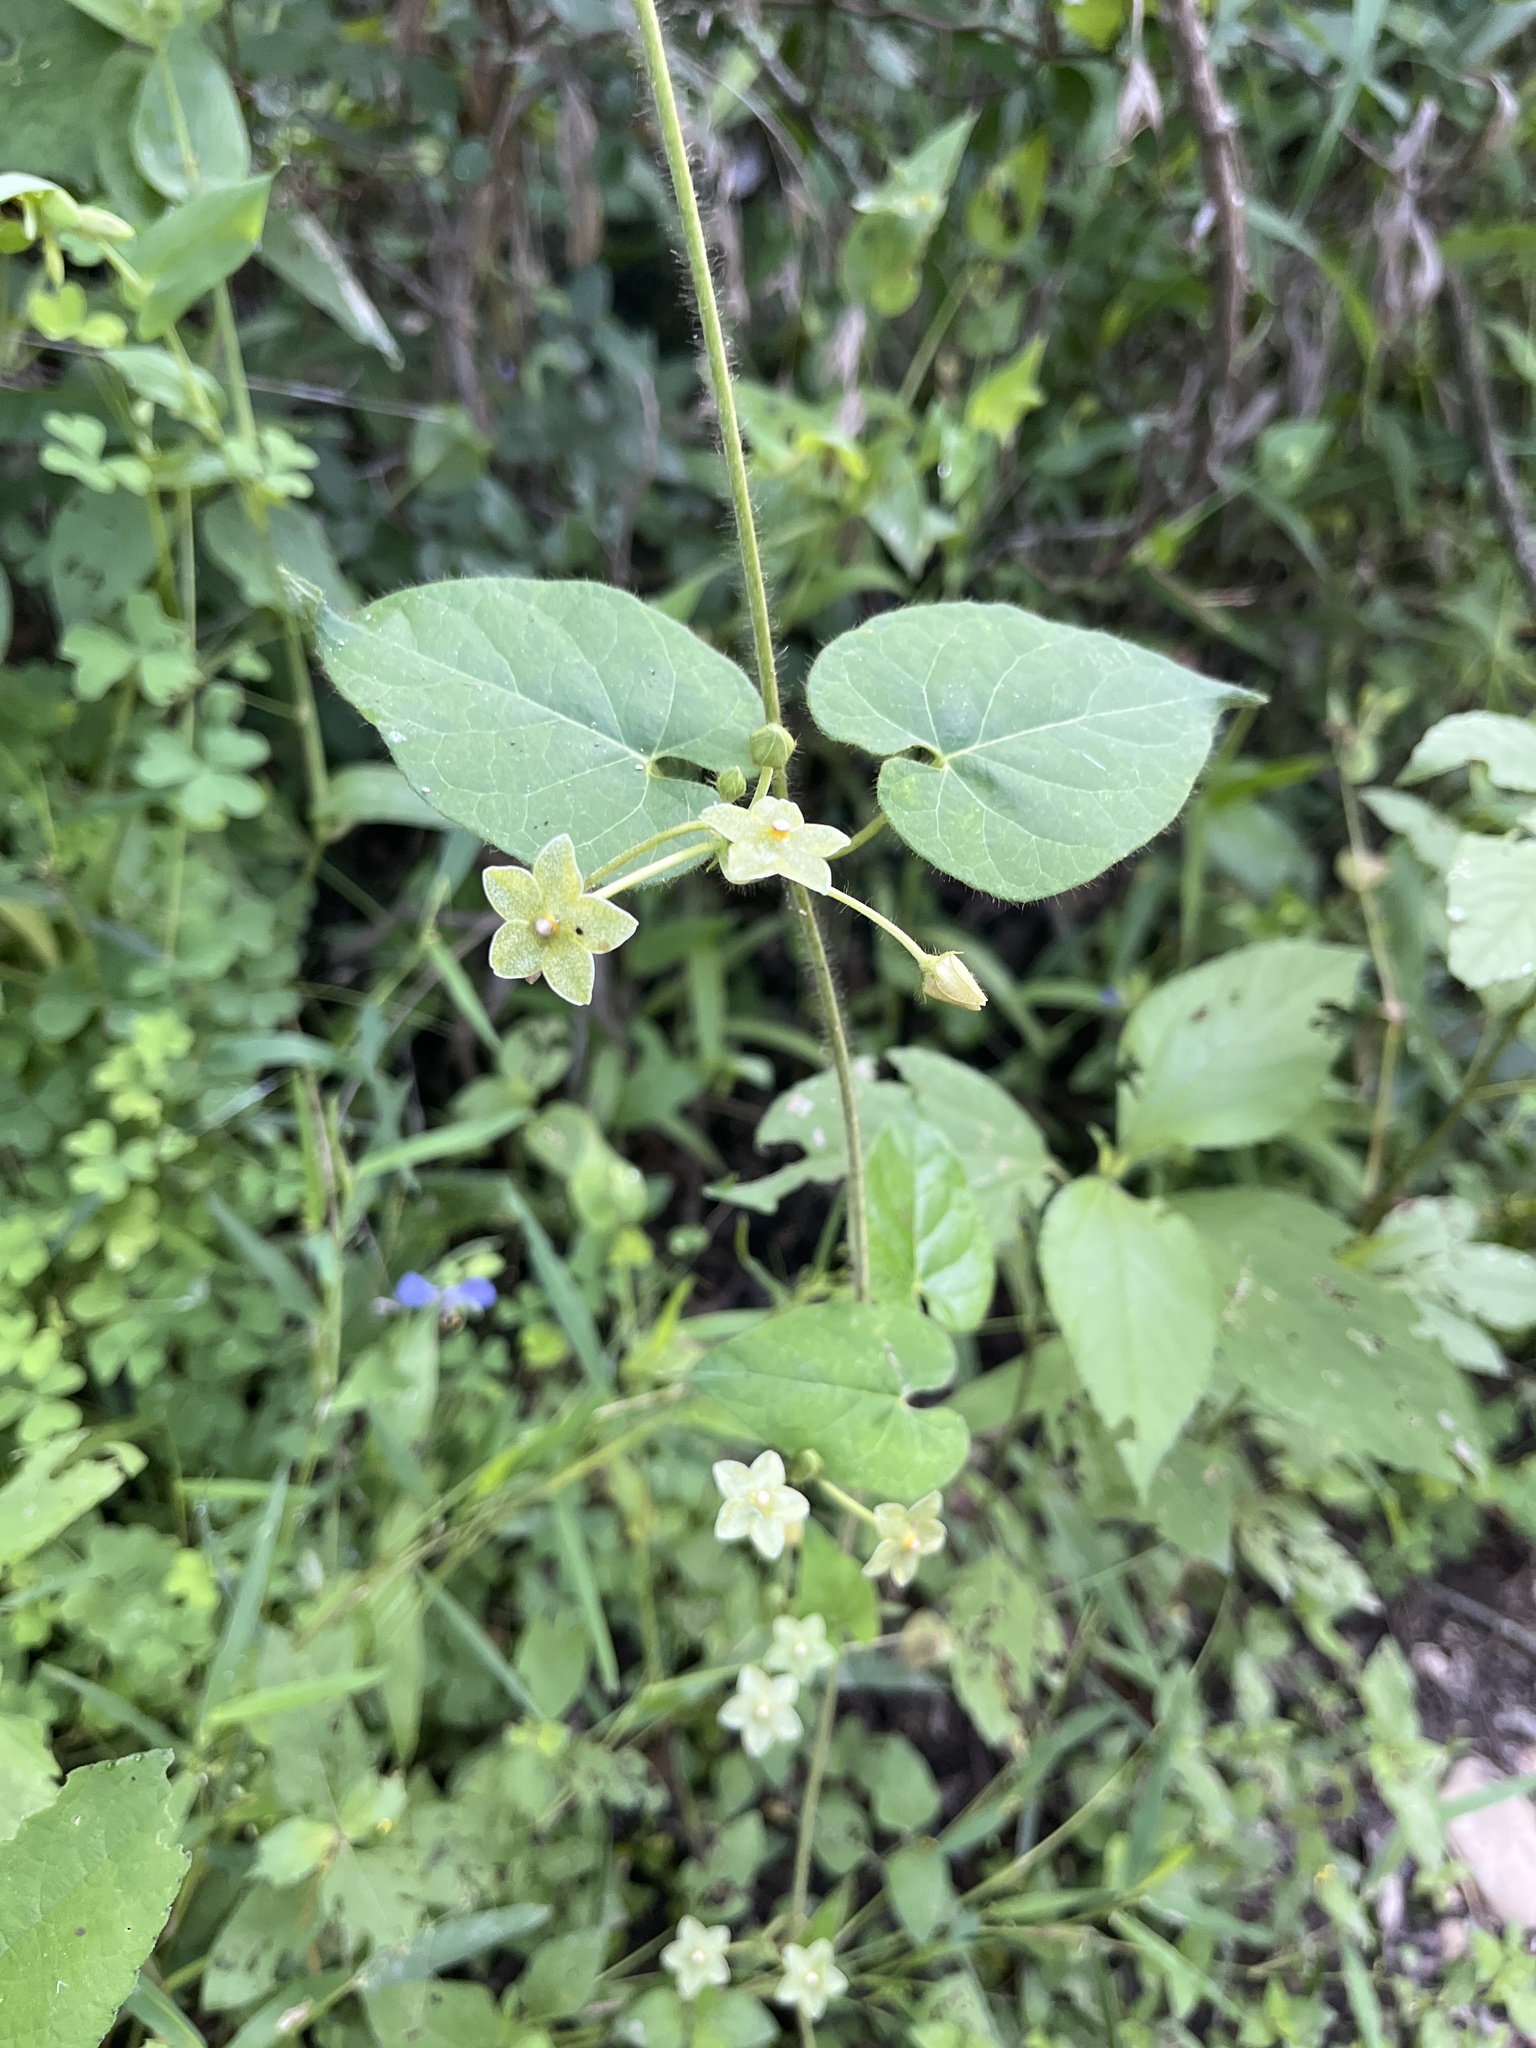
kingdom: Plantae
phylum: Tracheophyta
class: Magnoliopsida
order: Gentianales
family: Apocynaceae
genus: Dictyanthus
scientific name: Dictyanthus reticulatus
